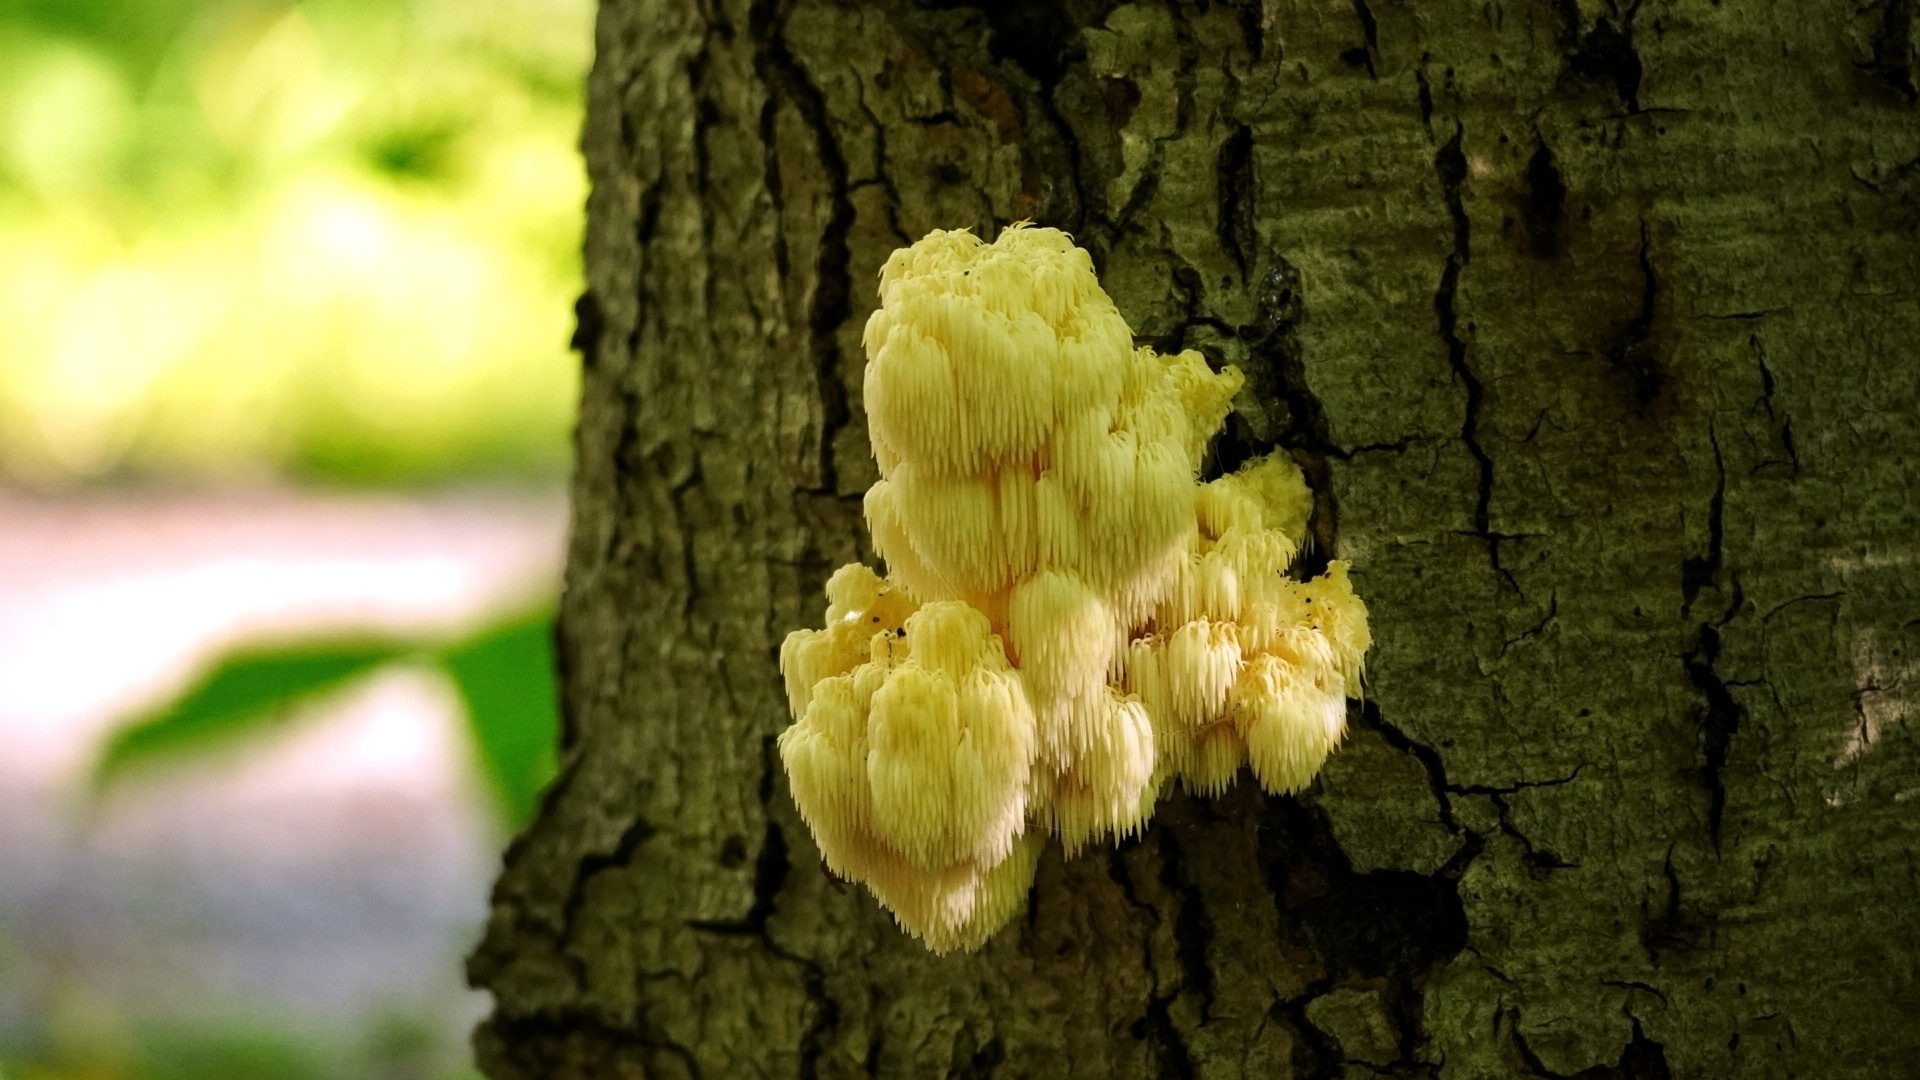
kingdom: Fungi
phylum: Basidiomycota
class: Agaricomycetes
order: Russulales
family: Hericiaceae
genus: Hericium
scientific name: Hericium americanum
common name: Bear's head tooth
